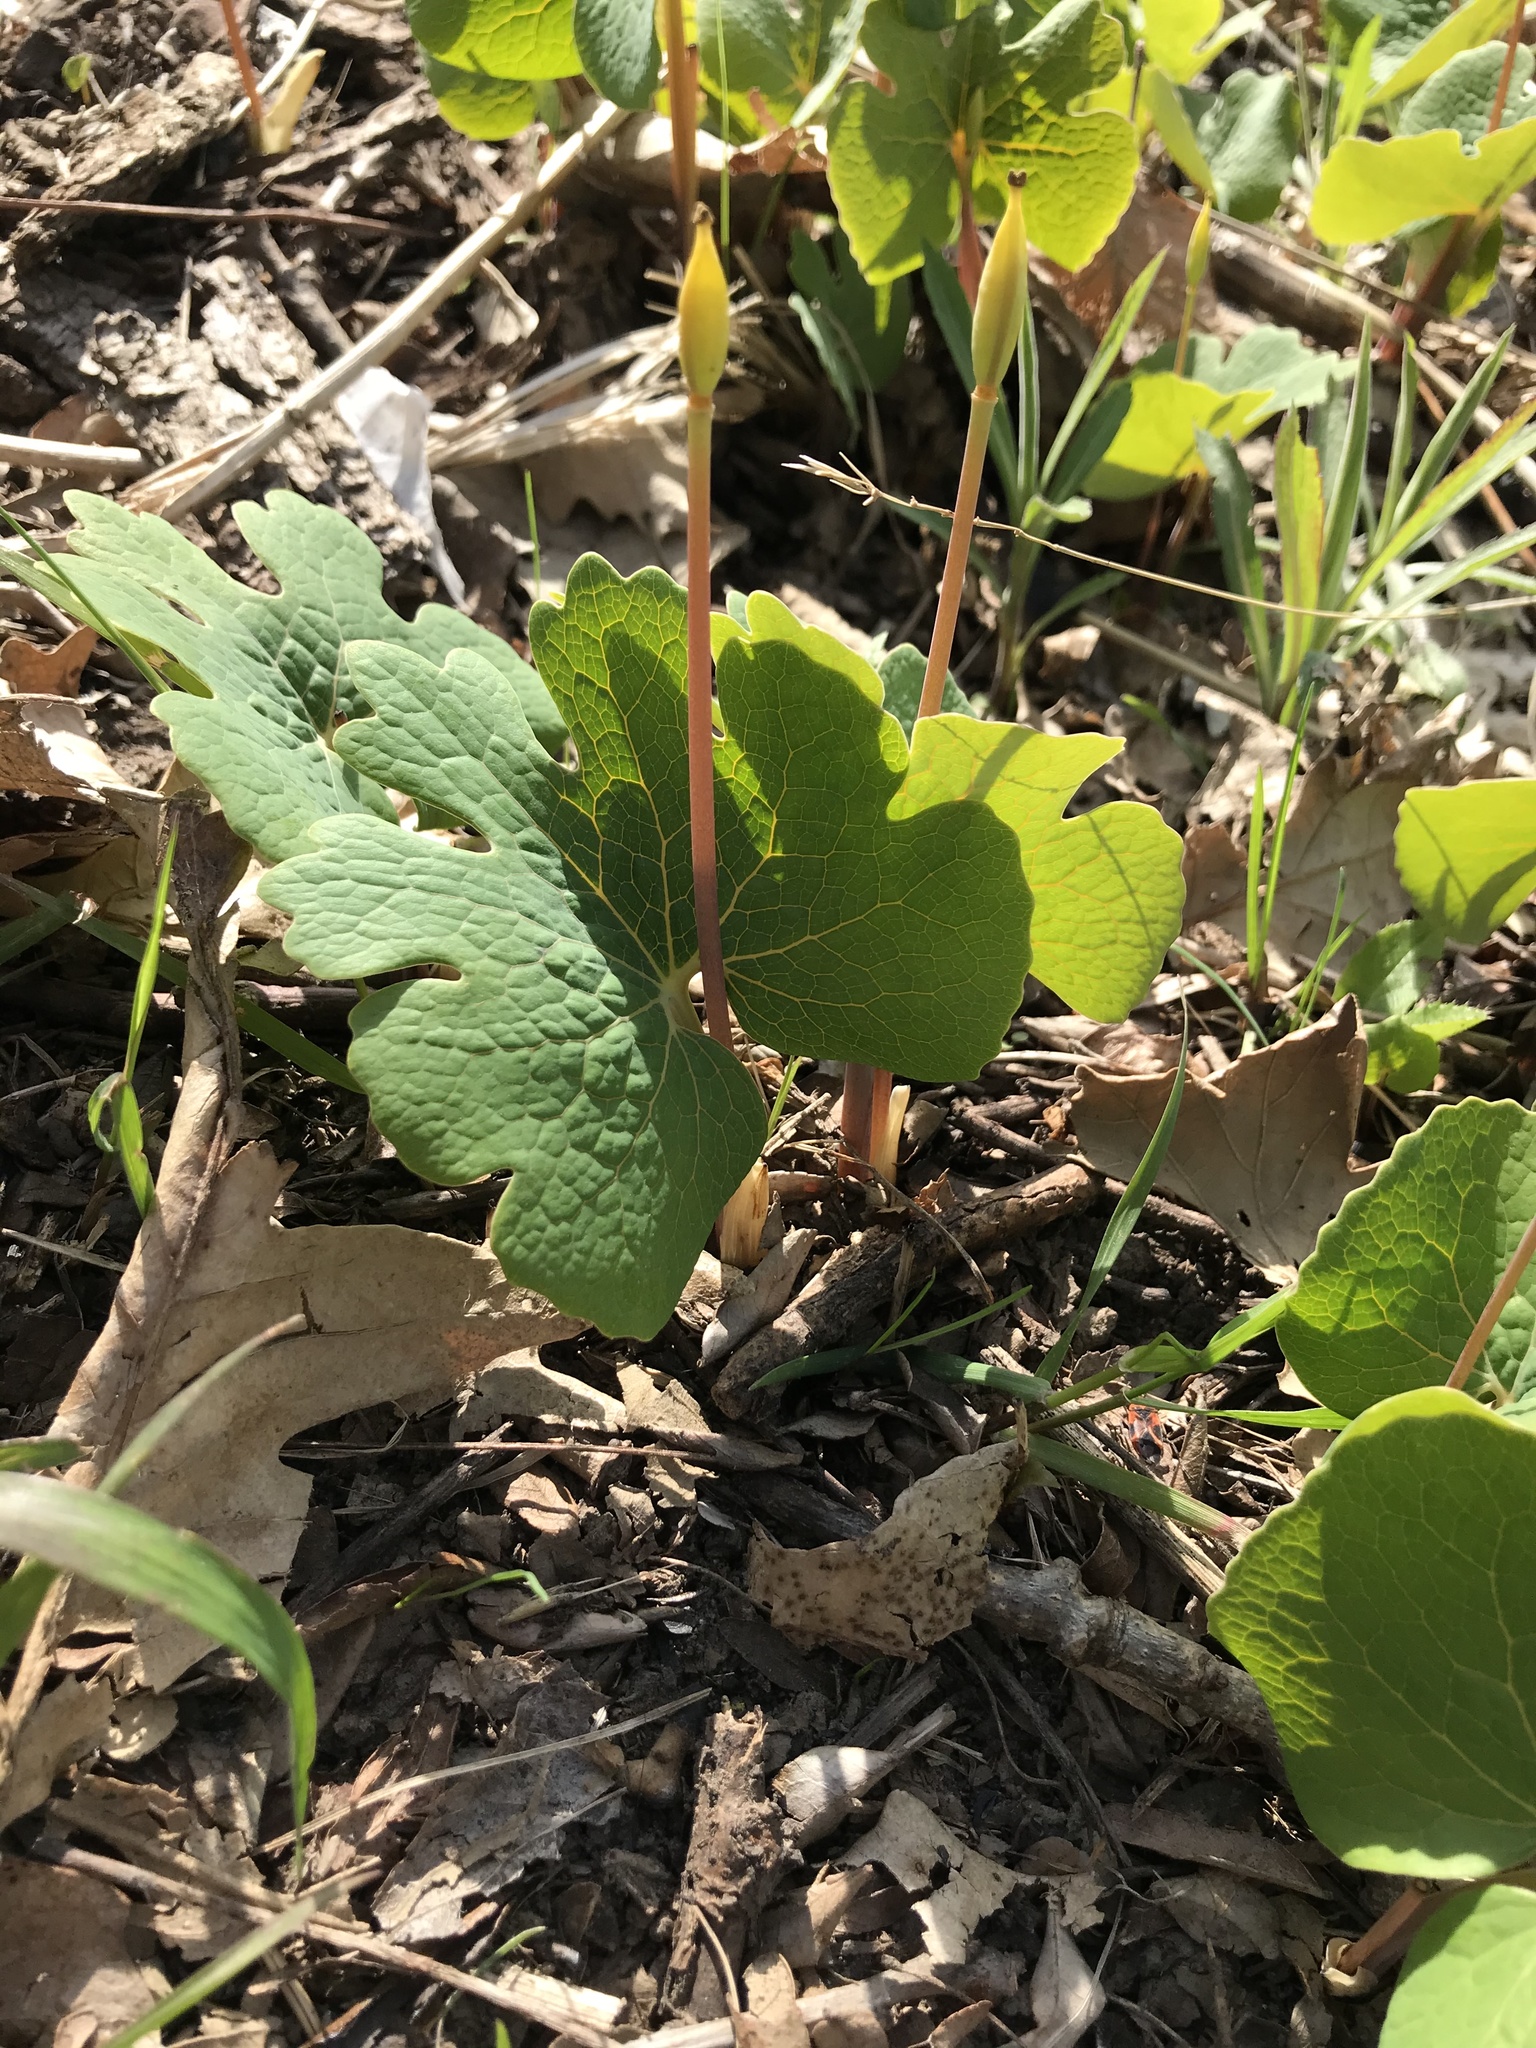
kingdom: Plantae
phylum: Tracheophyta
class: Magnoliopsida
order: Ranunculales
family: Papaveraceae
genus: Sanguinaria
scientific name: Sanguinaria canadensis
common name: Bloodroot
